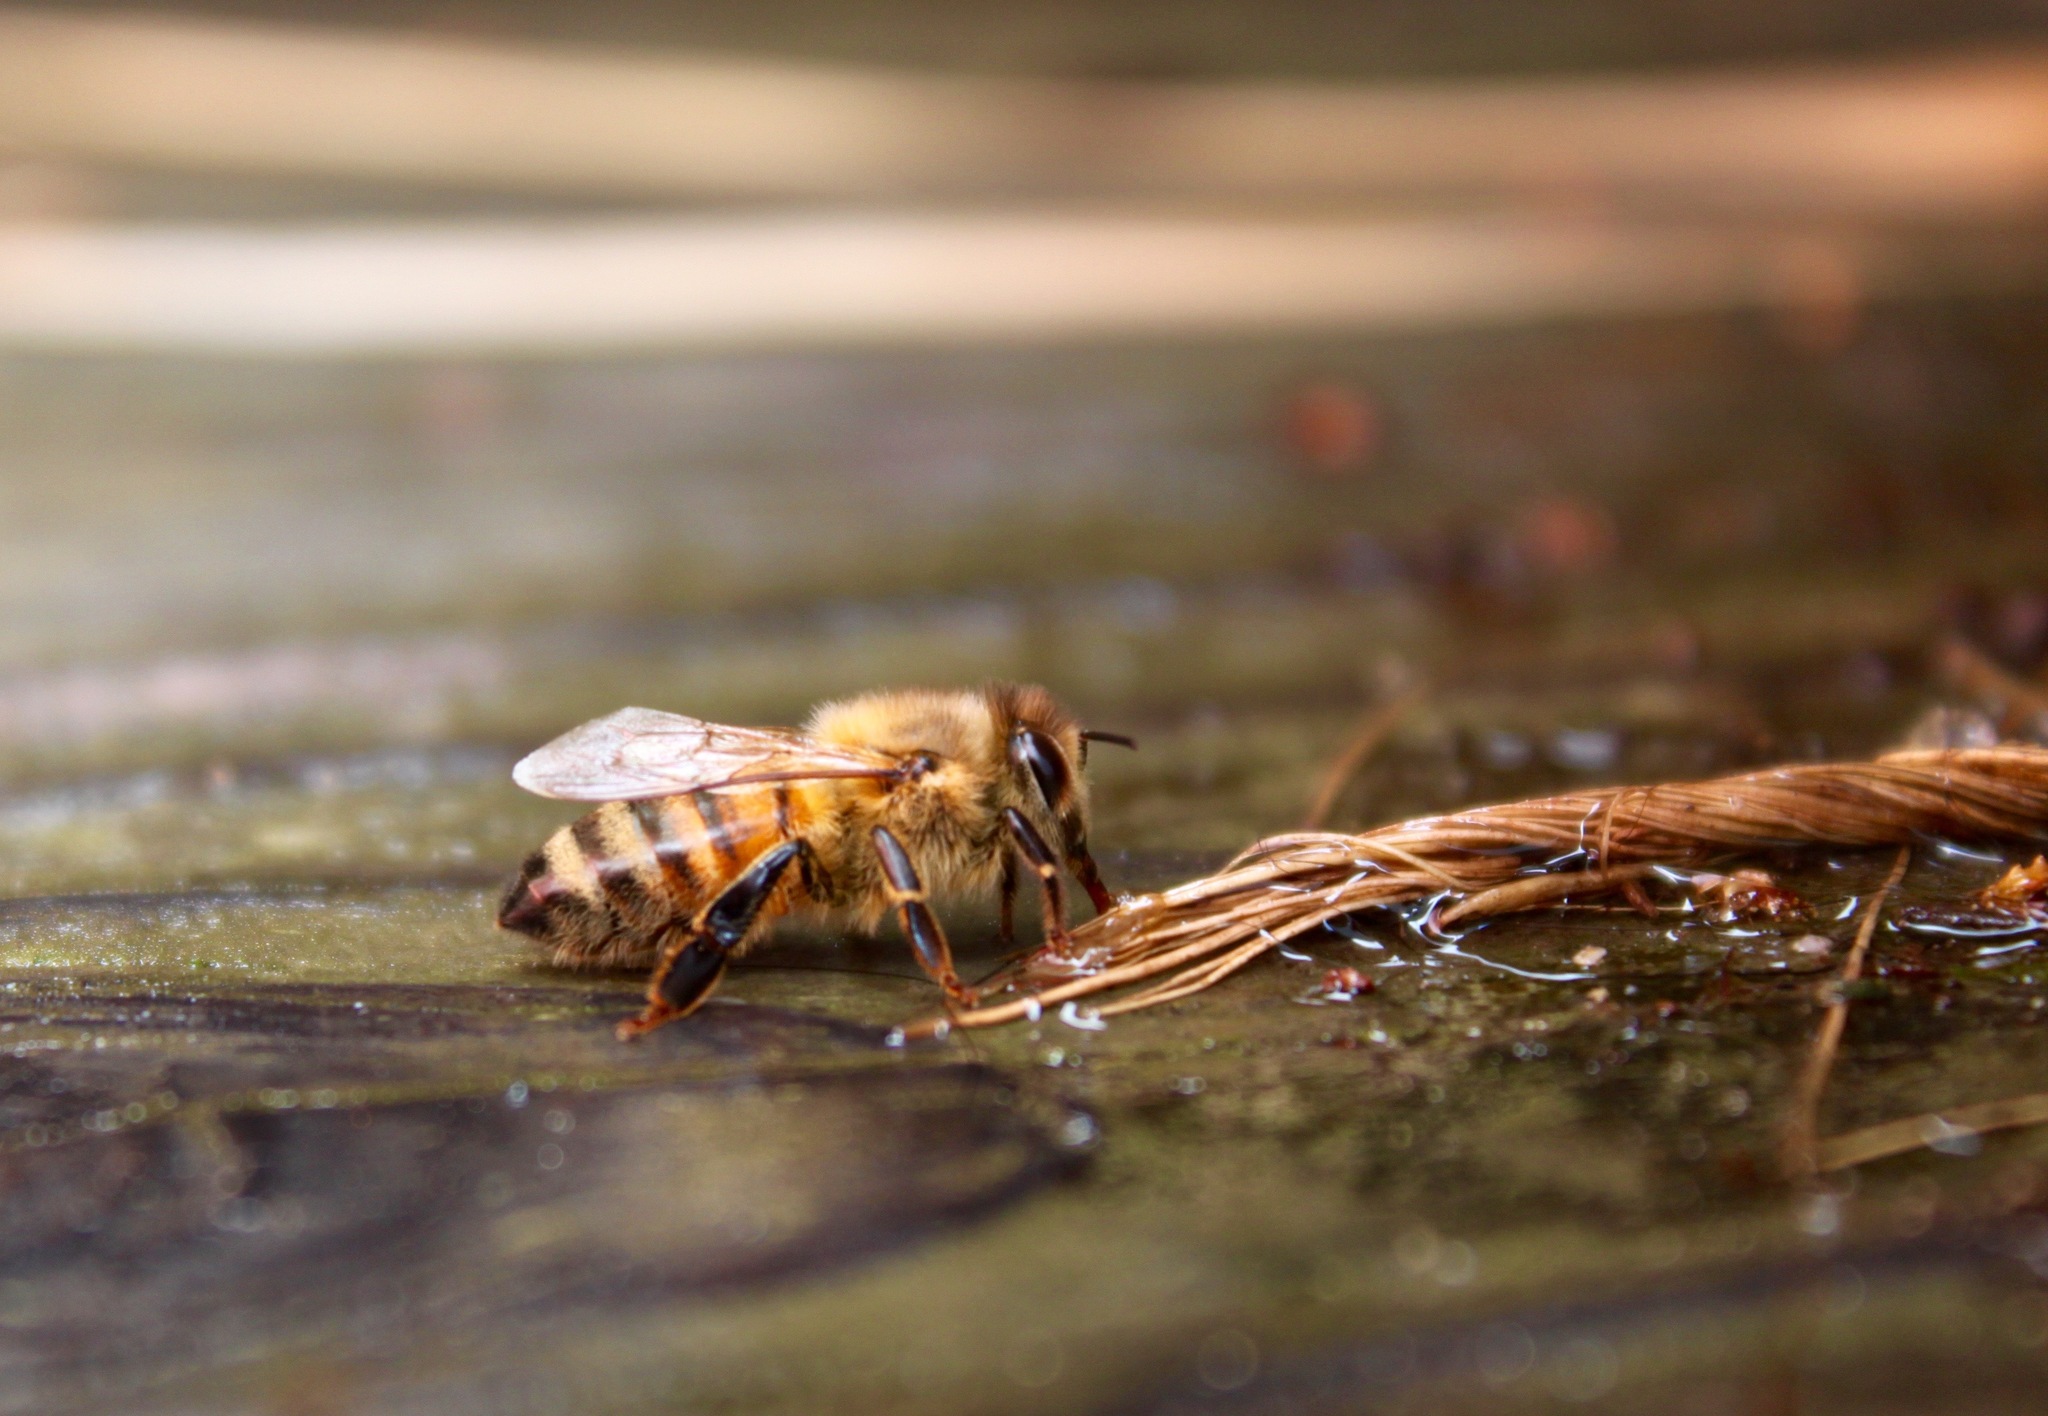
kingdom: Animalia
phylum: Arthropoda
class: Insecta
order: Hymenoptera
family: Apidae
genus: Apis
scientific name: Apis mellifera
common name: Honey bee
